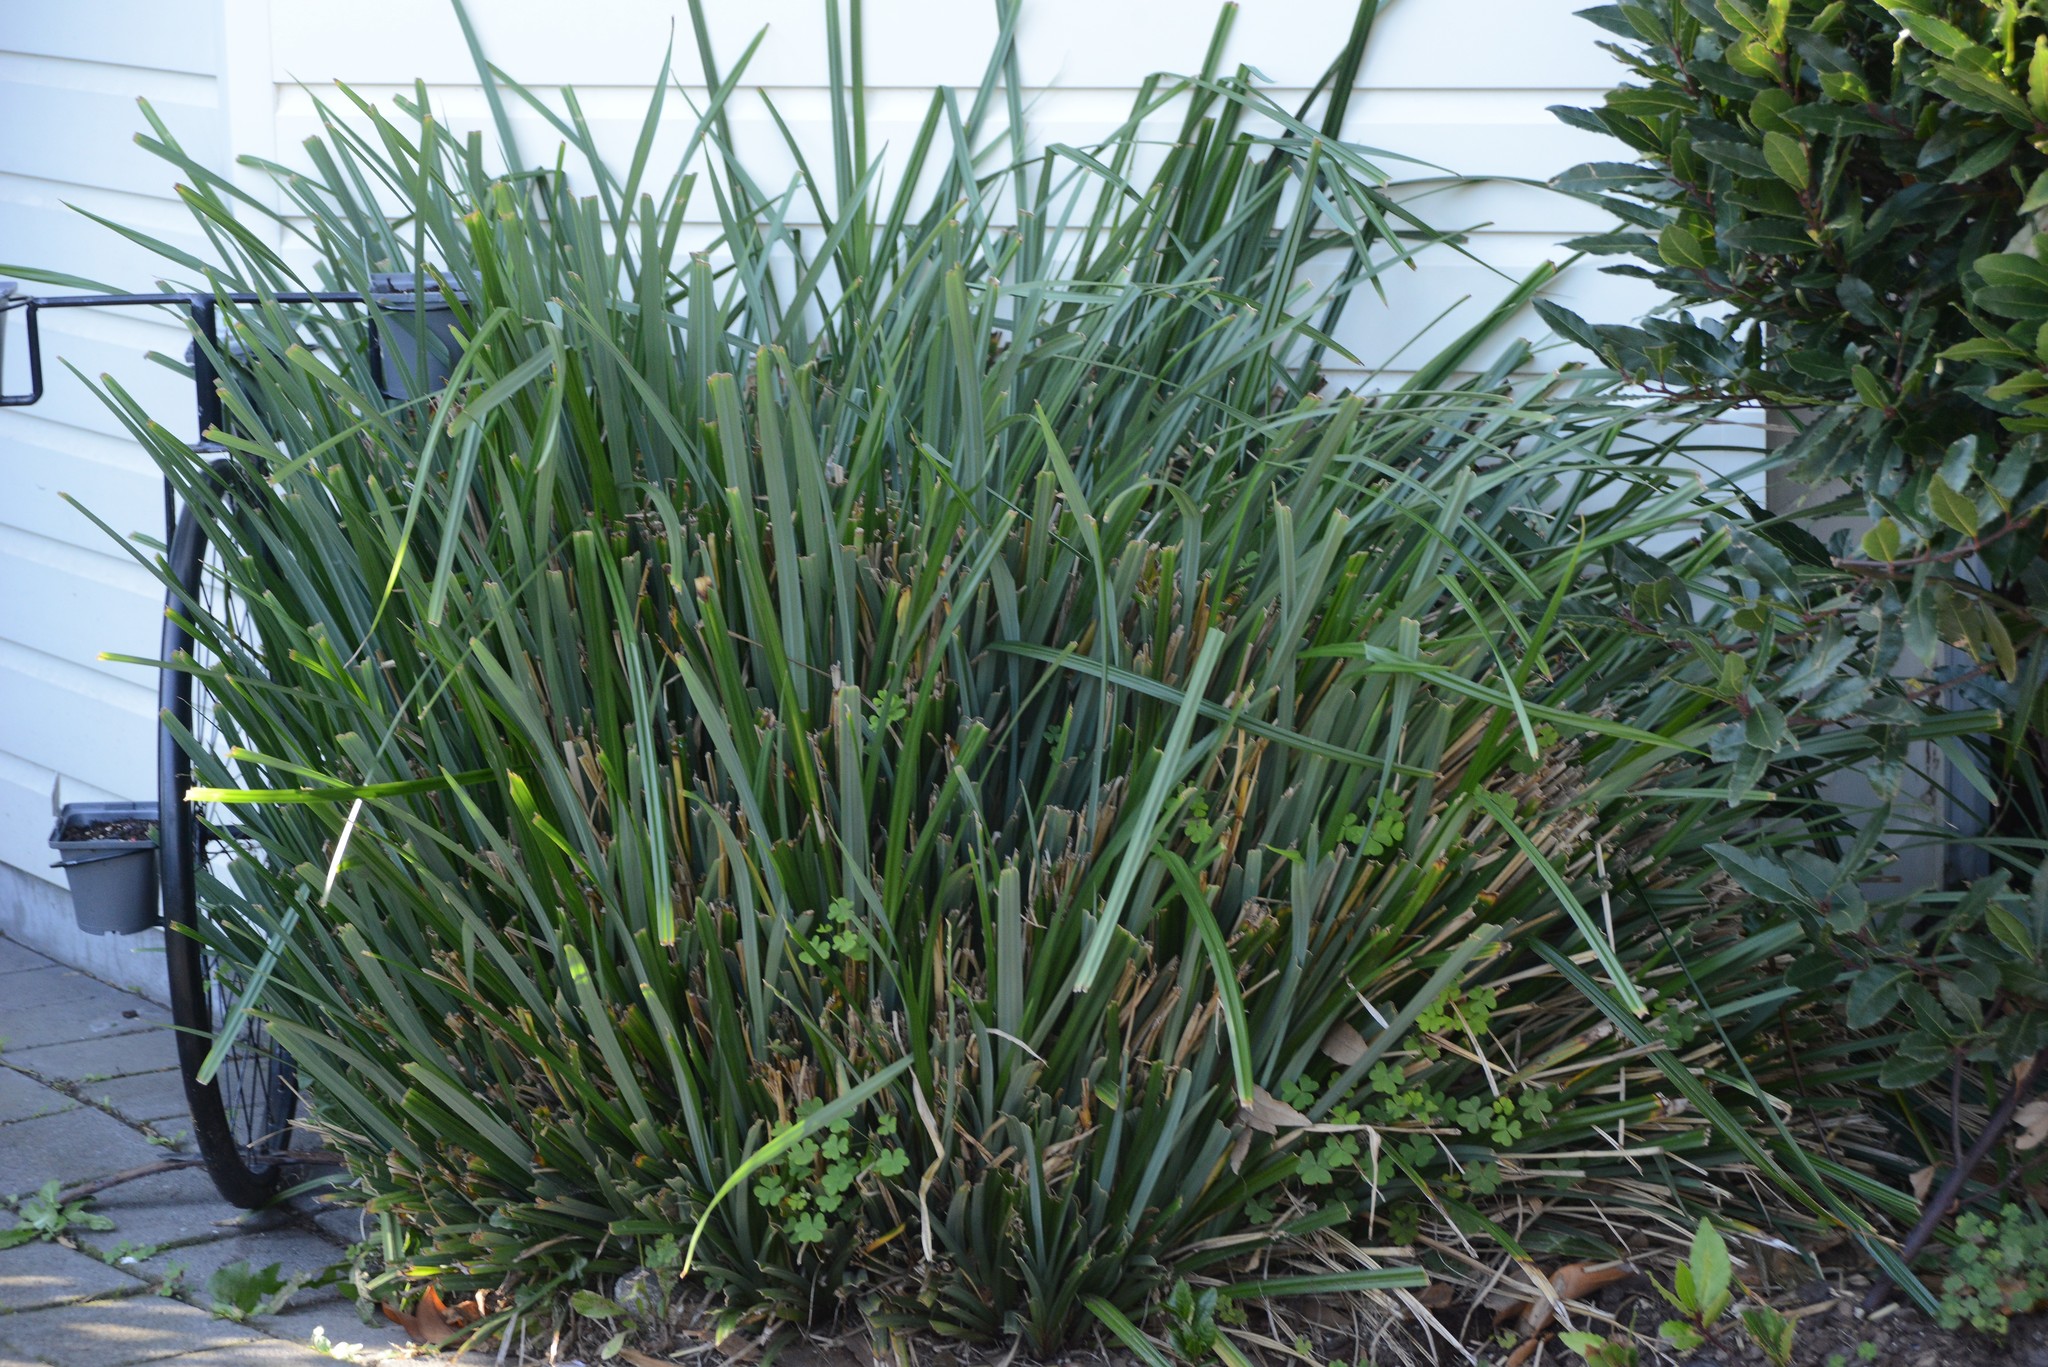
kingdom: Plantae
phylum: Tracheophyta
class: Liliopsida
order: Poales
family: Cyperaceae
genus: Carex
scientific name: Carex pendula
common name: Pendulous sedge
